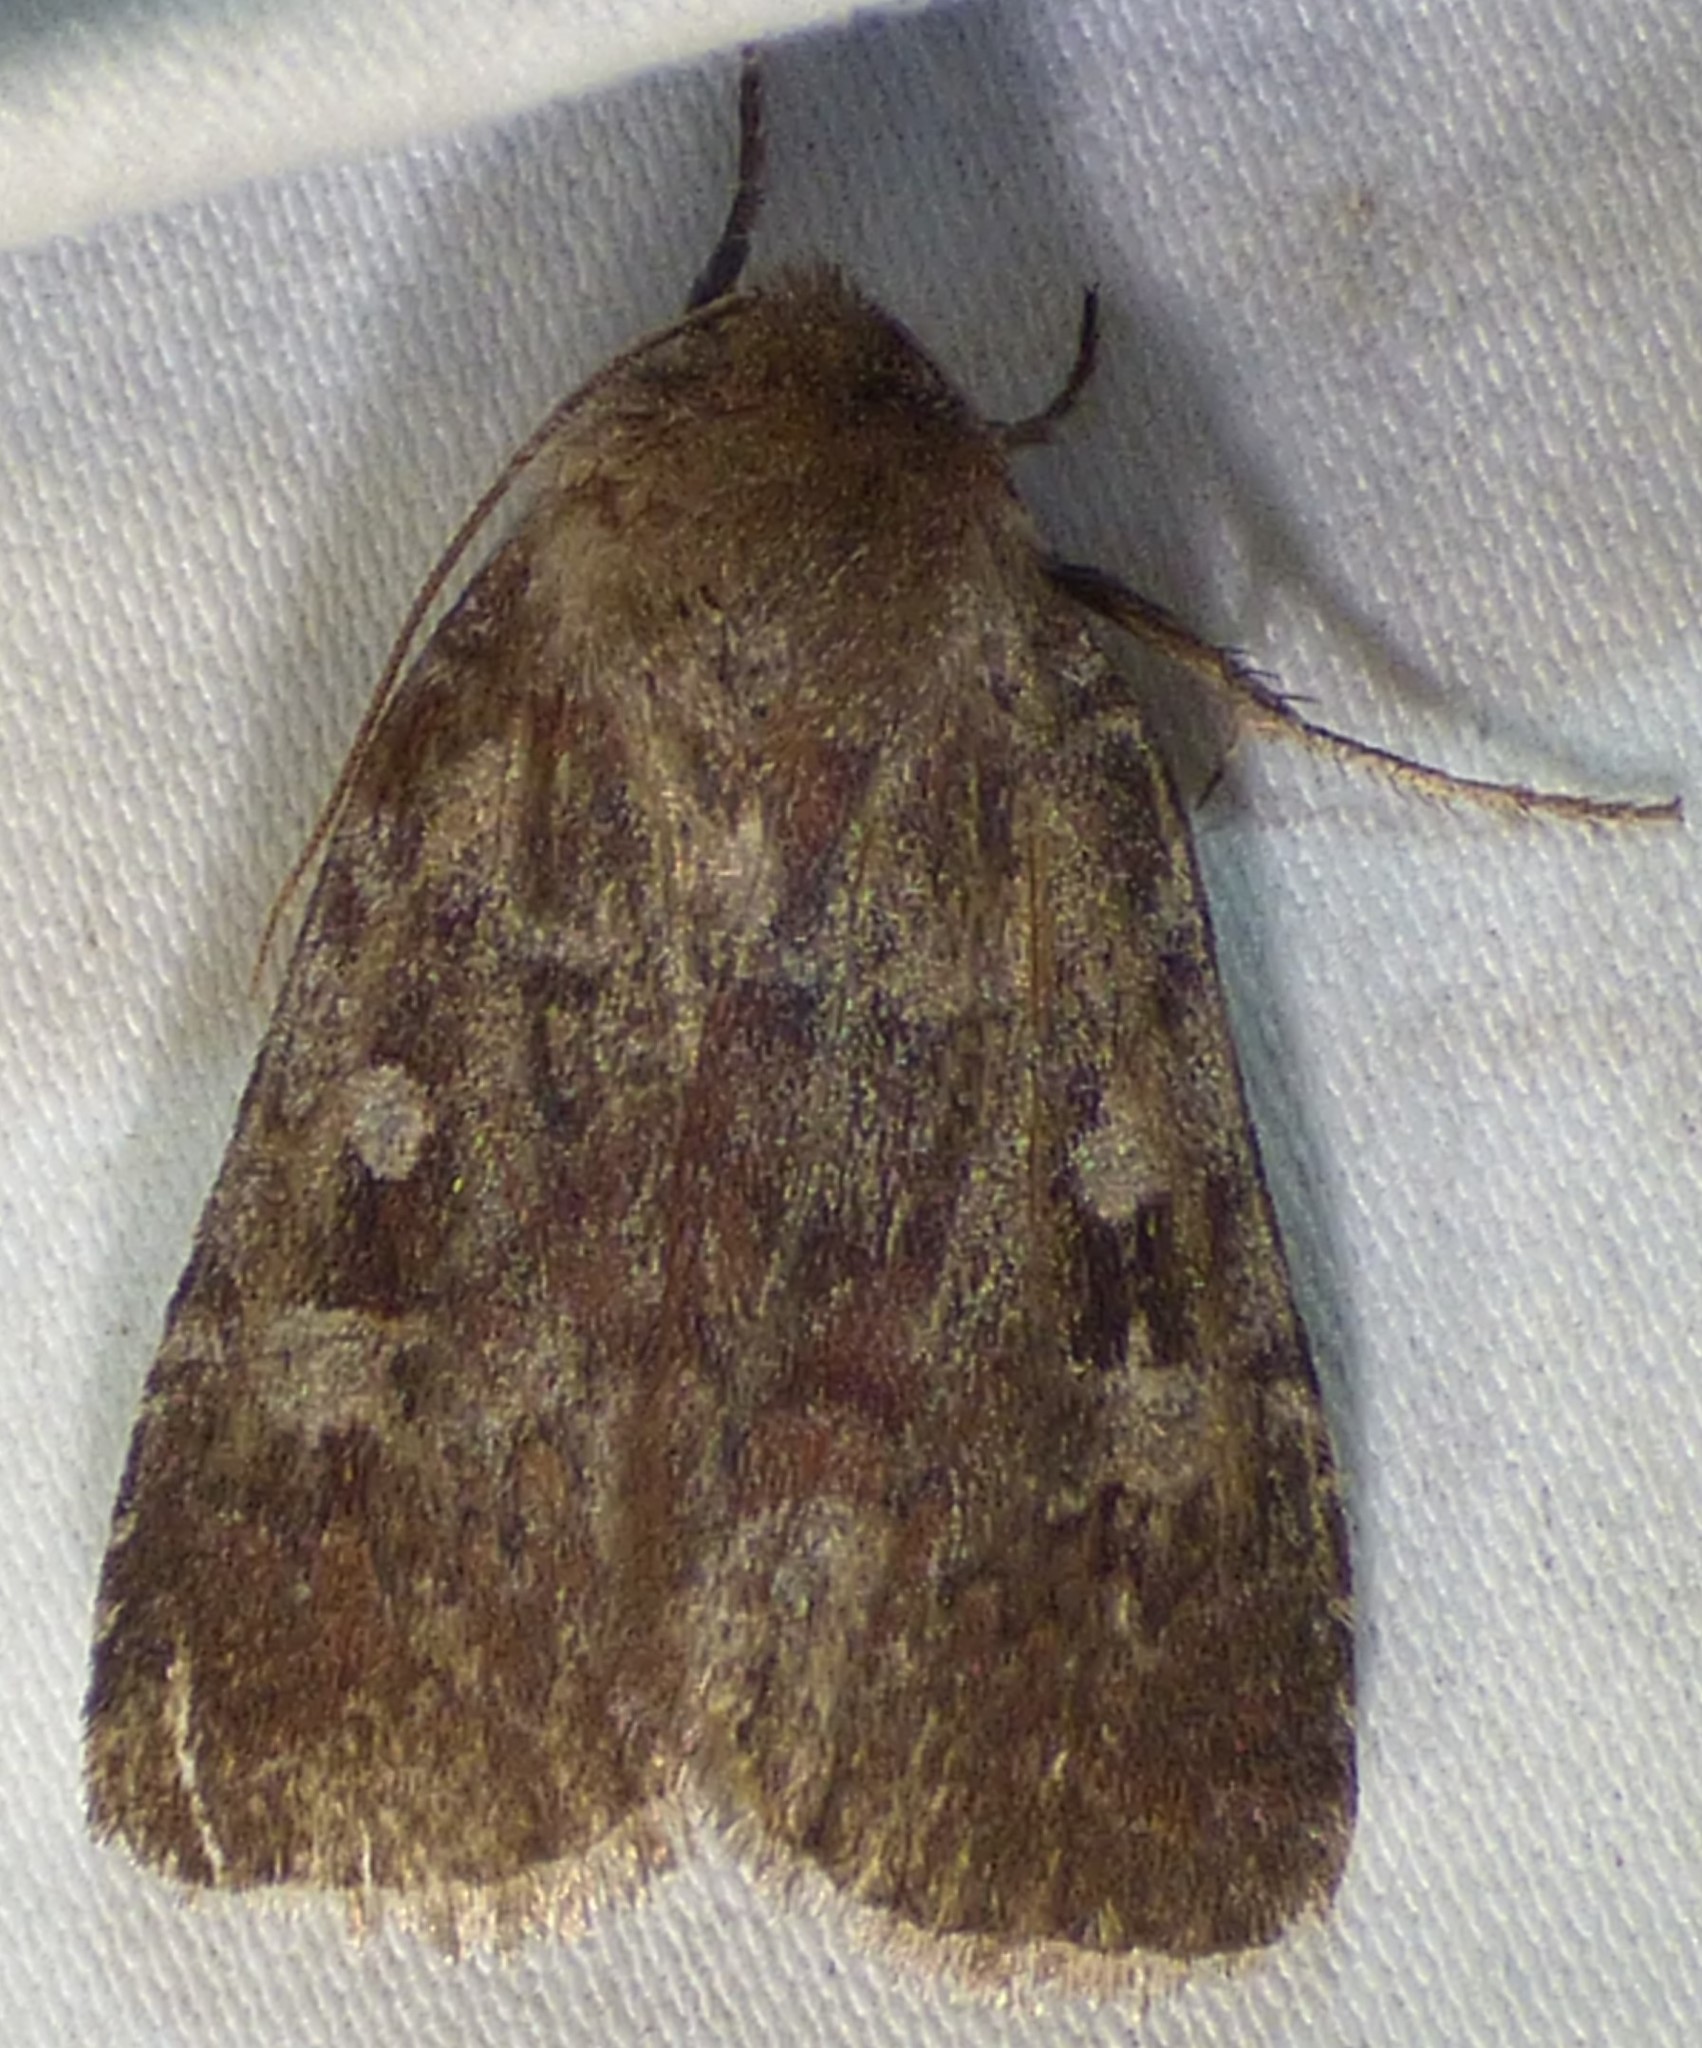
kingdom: Animalia
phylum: Arthropoda
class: Insecta
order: Lepidoptera
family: Noctuidae
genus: Cerastis
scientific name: Cerastis tenebrifera
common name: Reddish speckled dart
